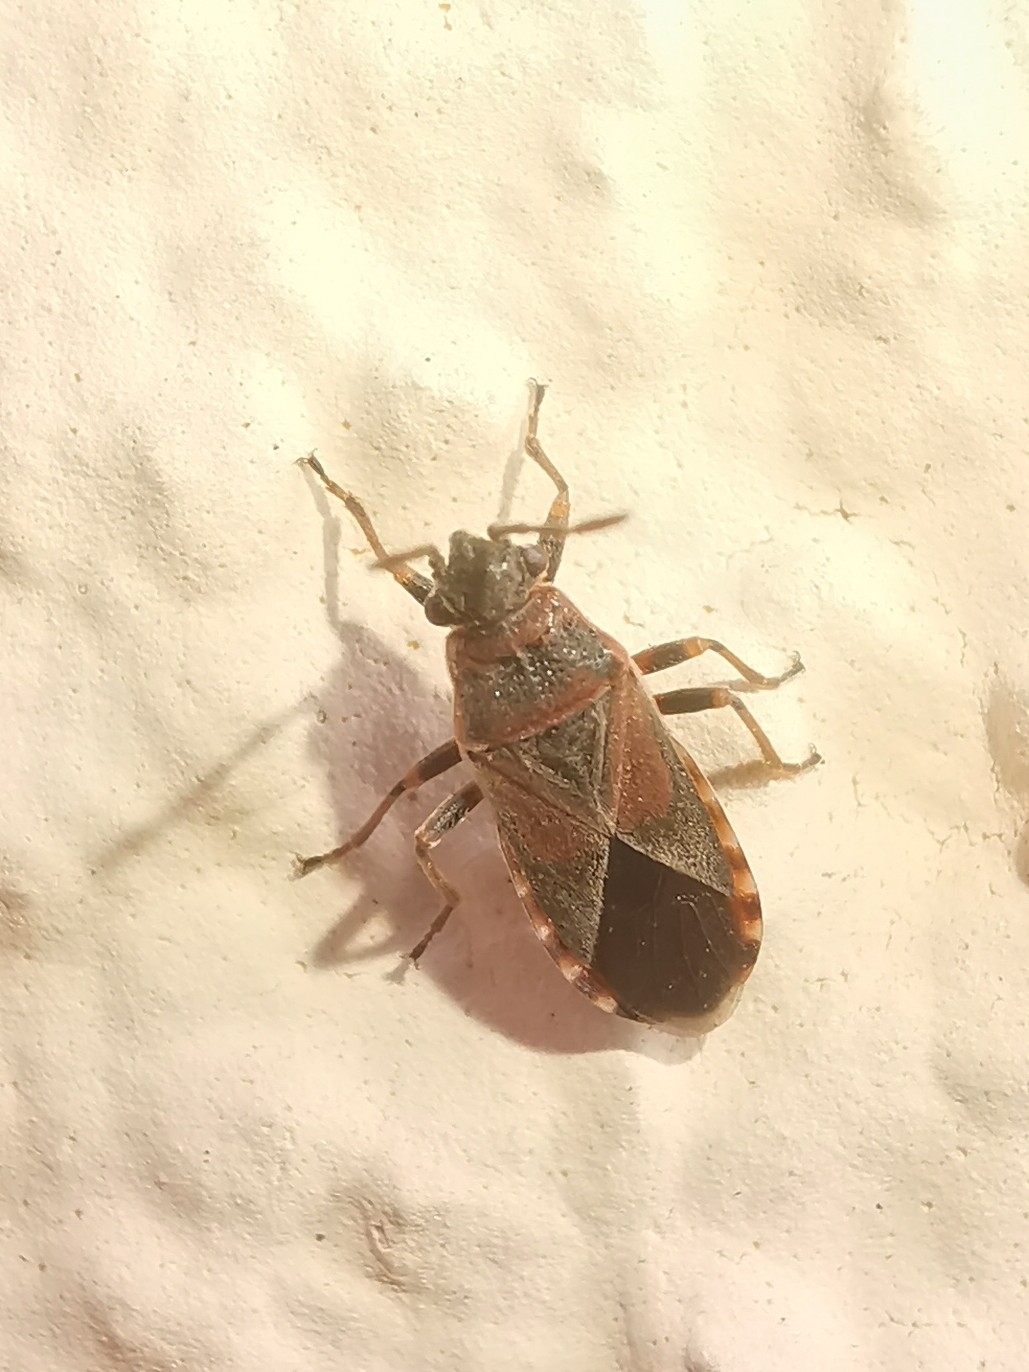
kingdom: Animalia
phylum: Arthropoda
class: Insecta
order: Hemiptera
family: Lygaeidae
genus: Arocatus
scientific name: Arocatus melanocephalus
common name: Lygaeid bug
